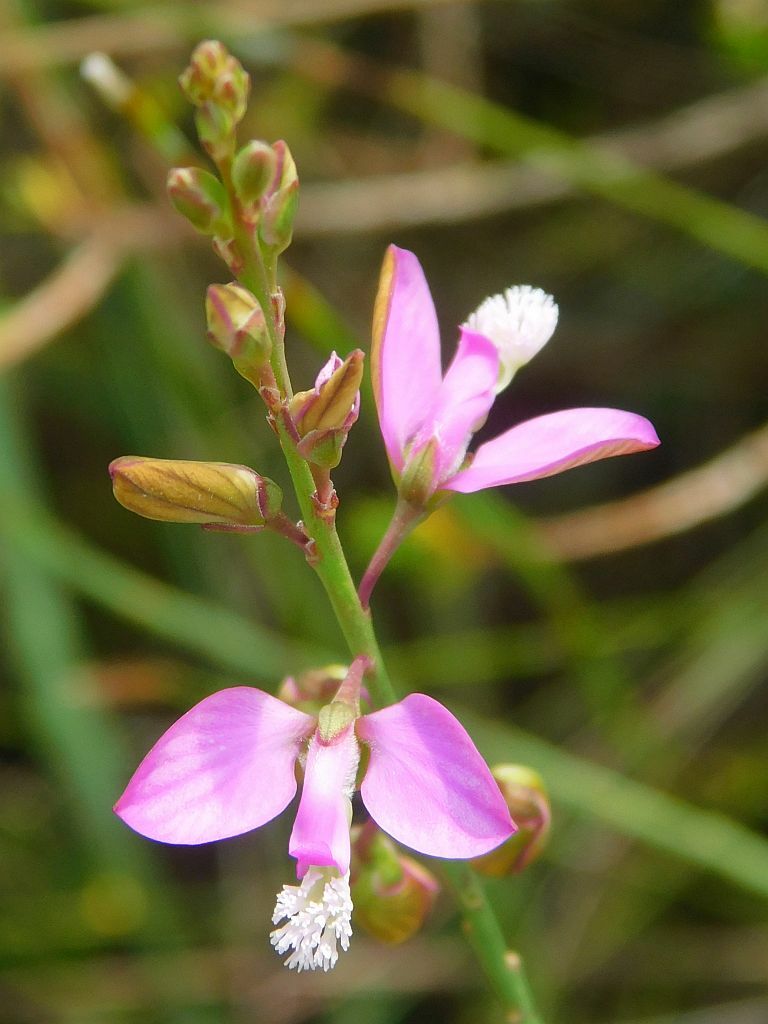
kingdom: Plantae
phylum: Tracheophyta
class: Magnoliopsida
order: Fabales
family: Polygalaceae
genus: Polygala
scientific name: Polygala garcini
